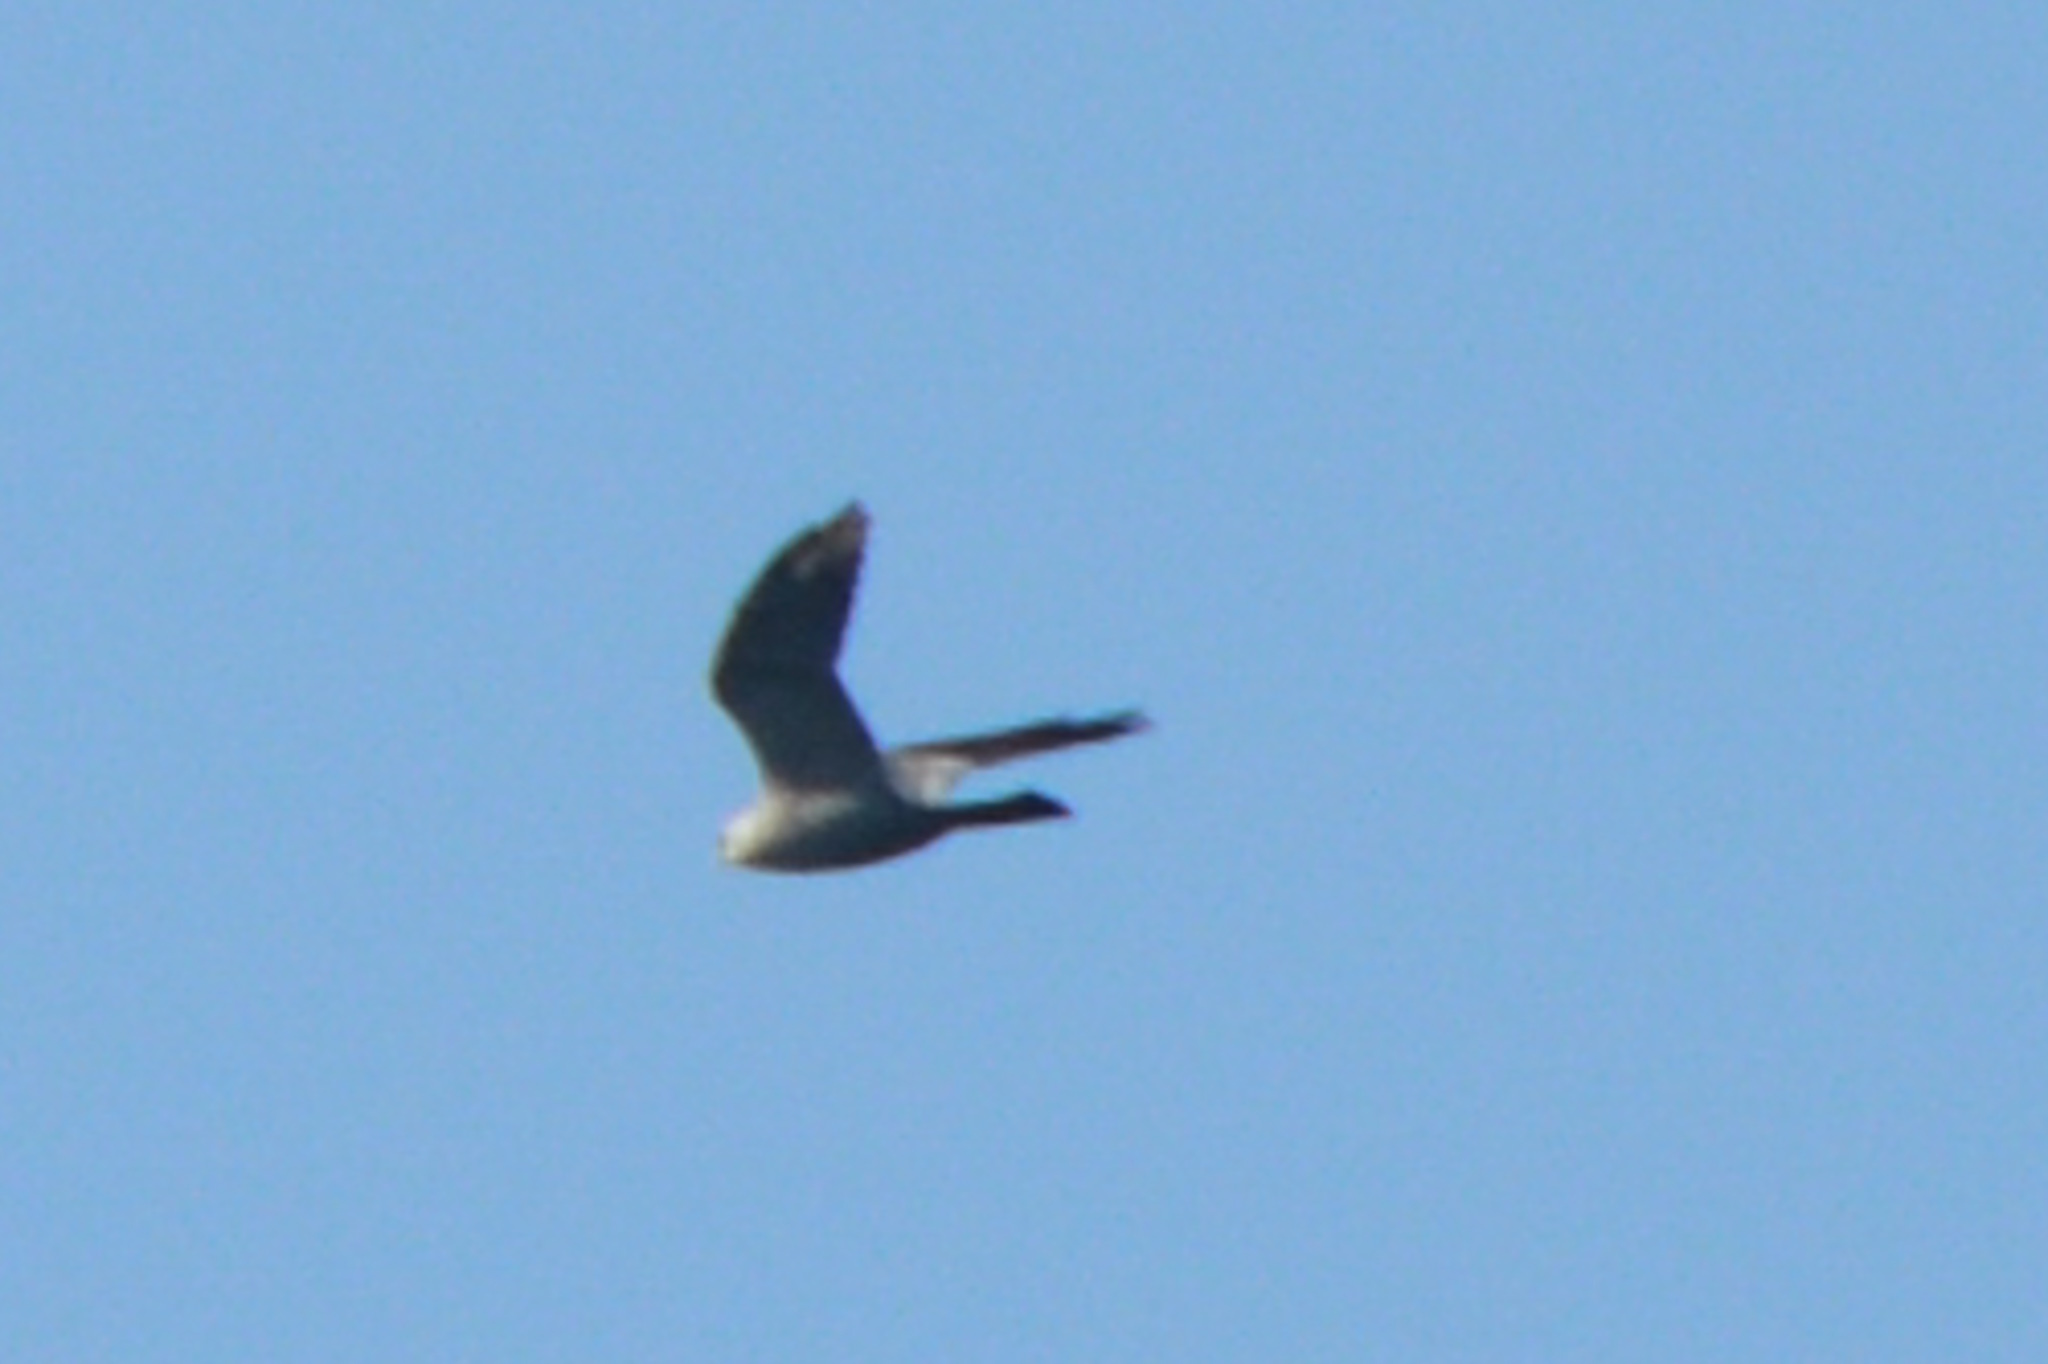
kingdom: Animalia
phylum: Chordata
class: Aves
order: Accipitriformes
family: Accipitridae
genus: Ictinia
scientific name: Ictinia mississippiensis
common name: Mississippi kite
